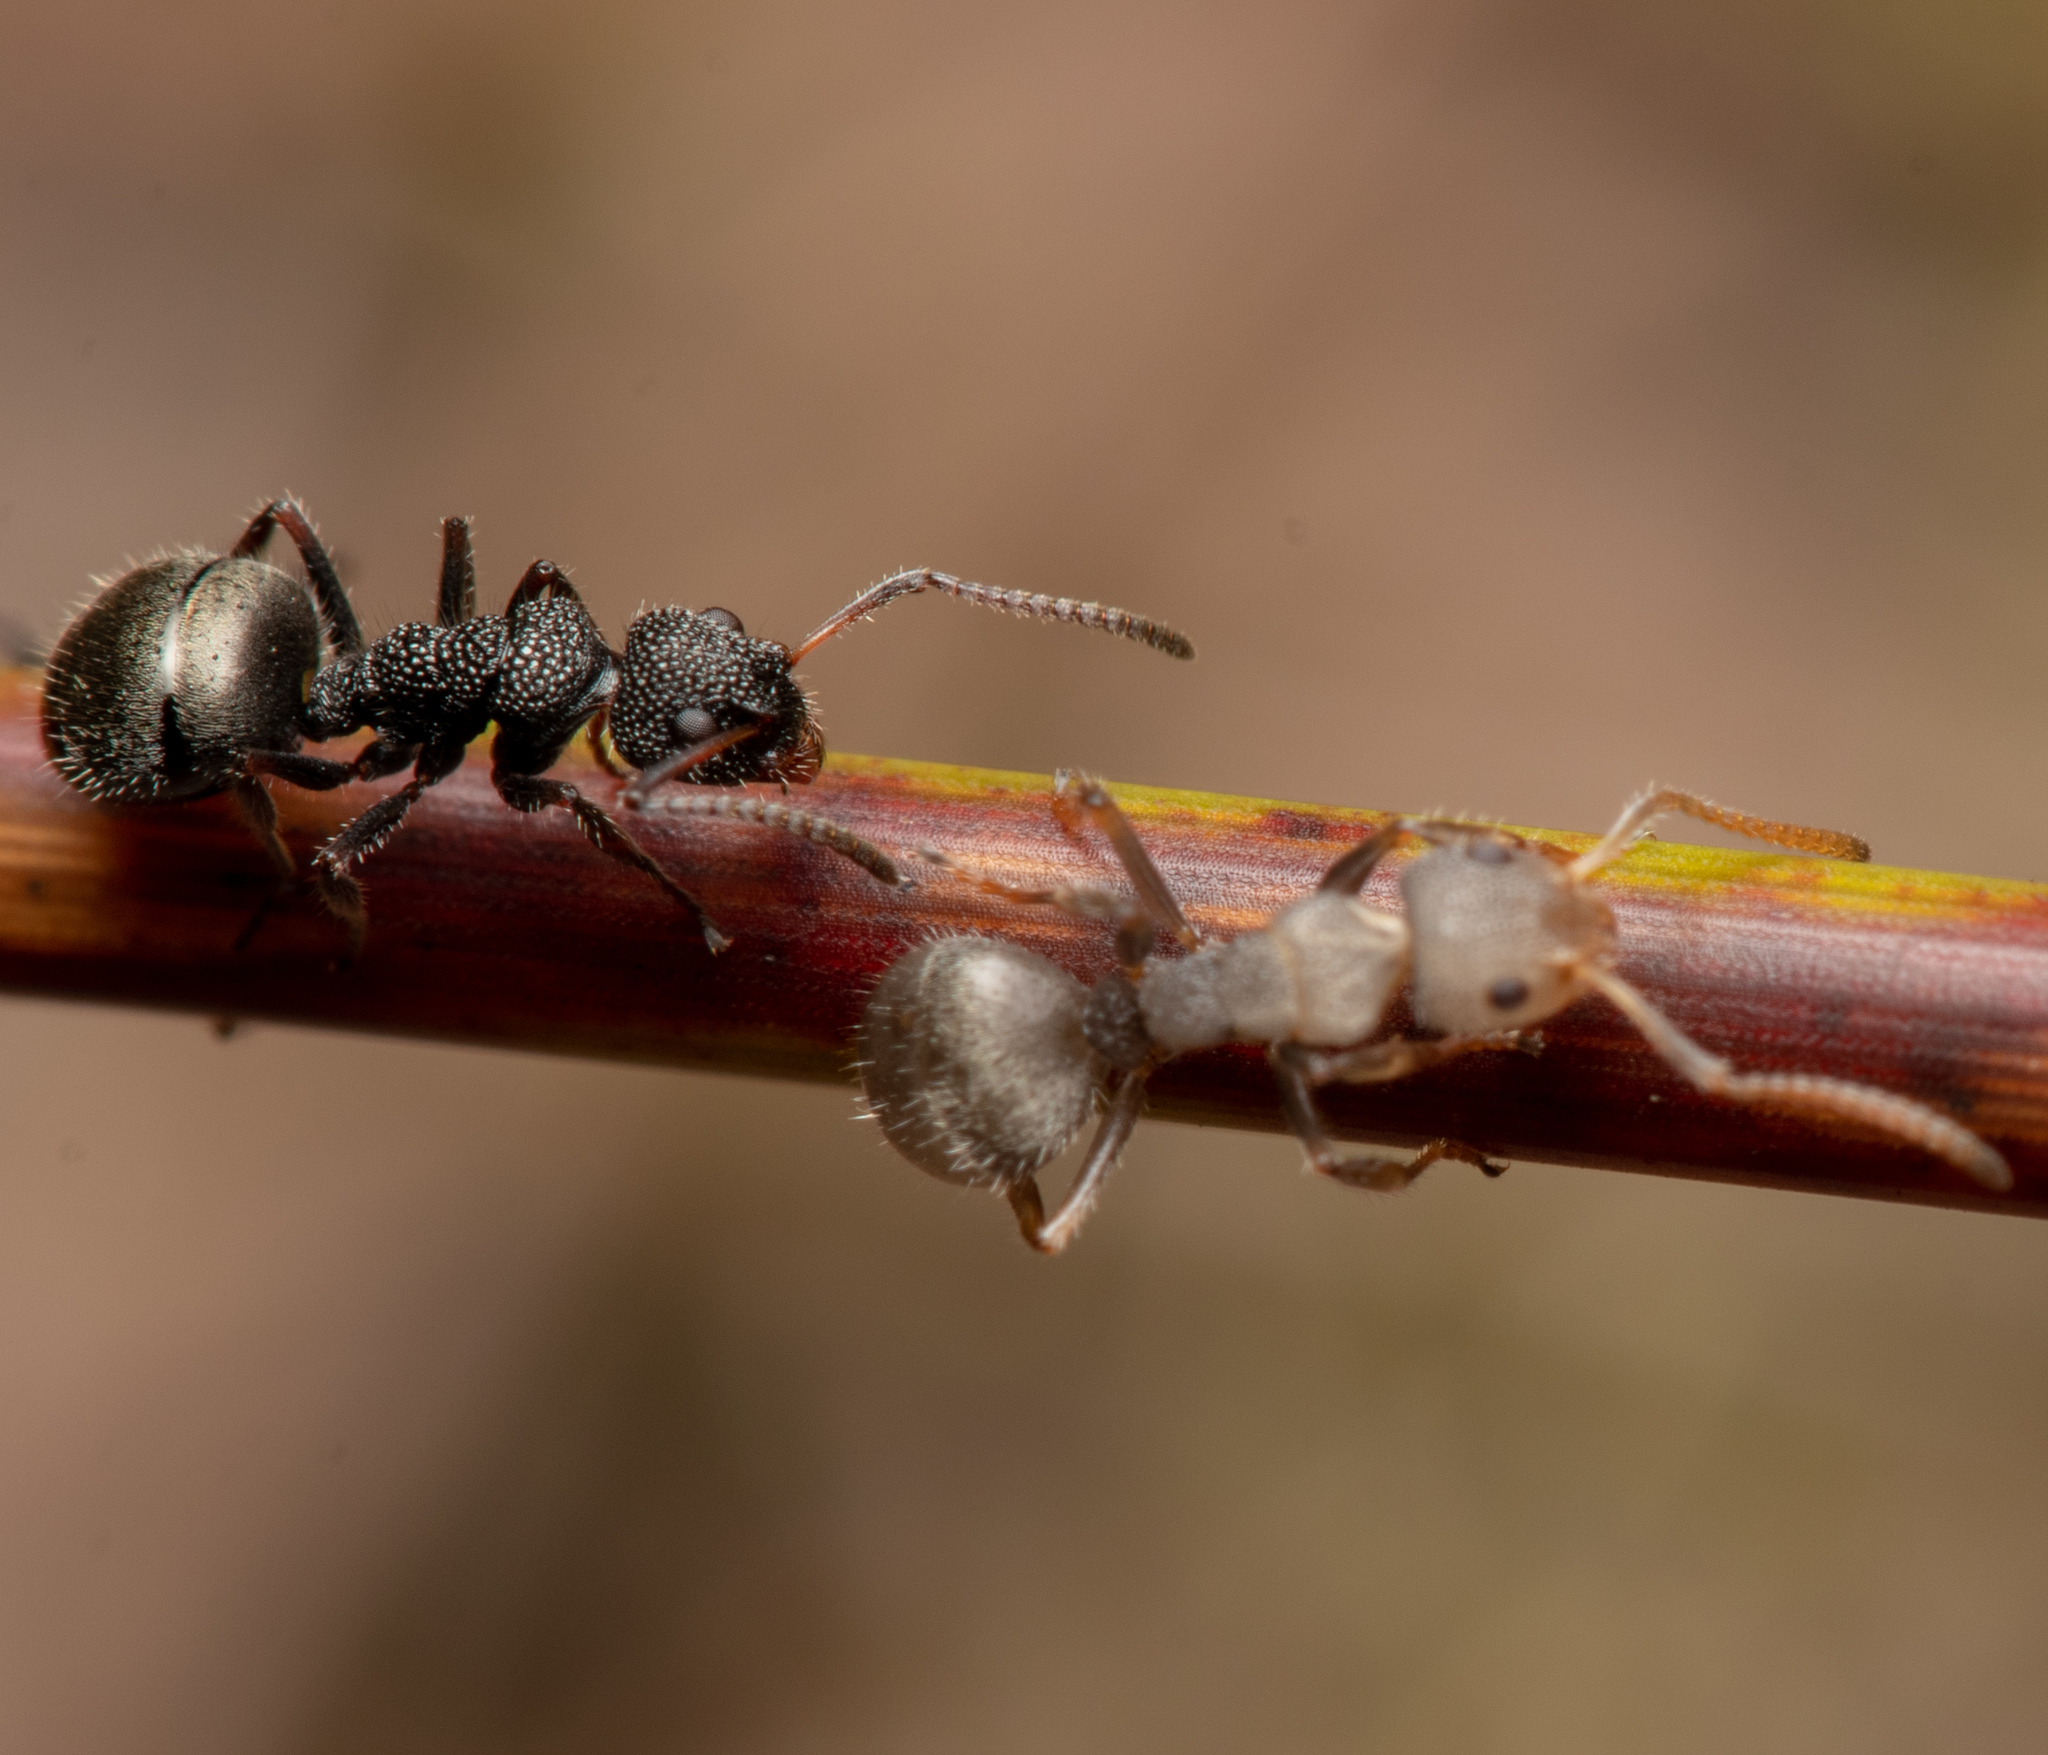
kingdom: Animalia
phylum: Arthropoda
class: Insecta
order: Hymenoptera
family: Formicidae
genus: Dolichoderus
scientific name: Dolichoderus scrobiculatus
